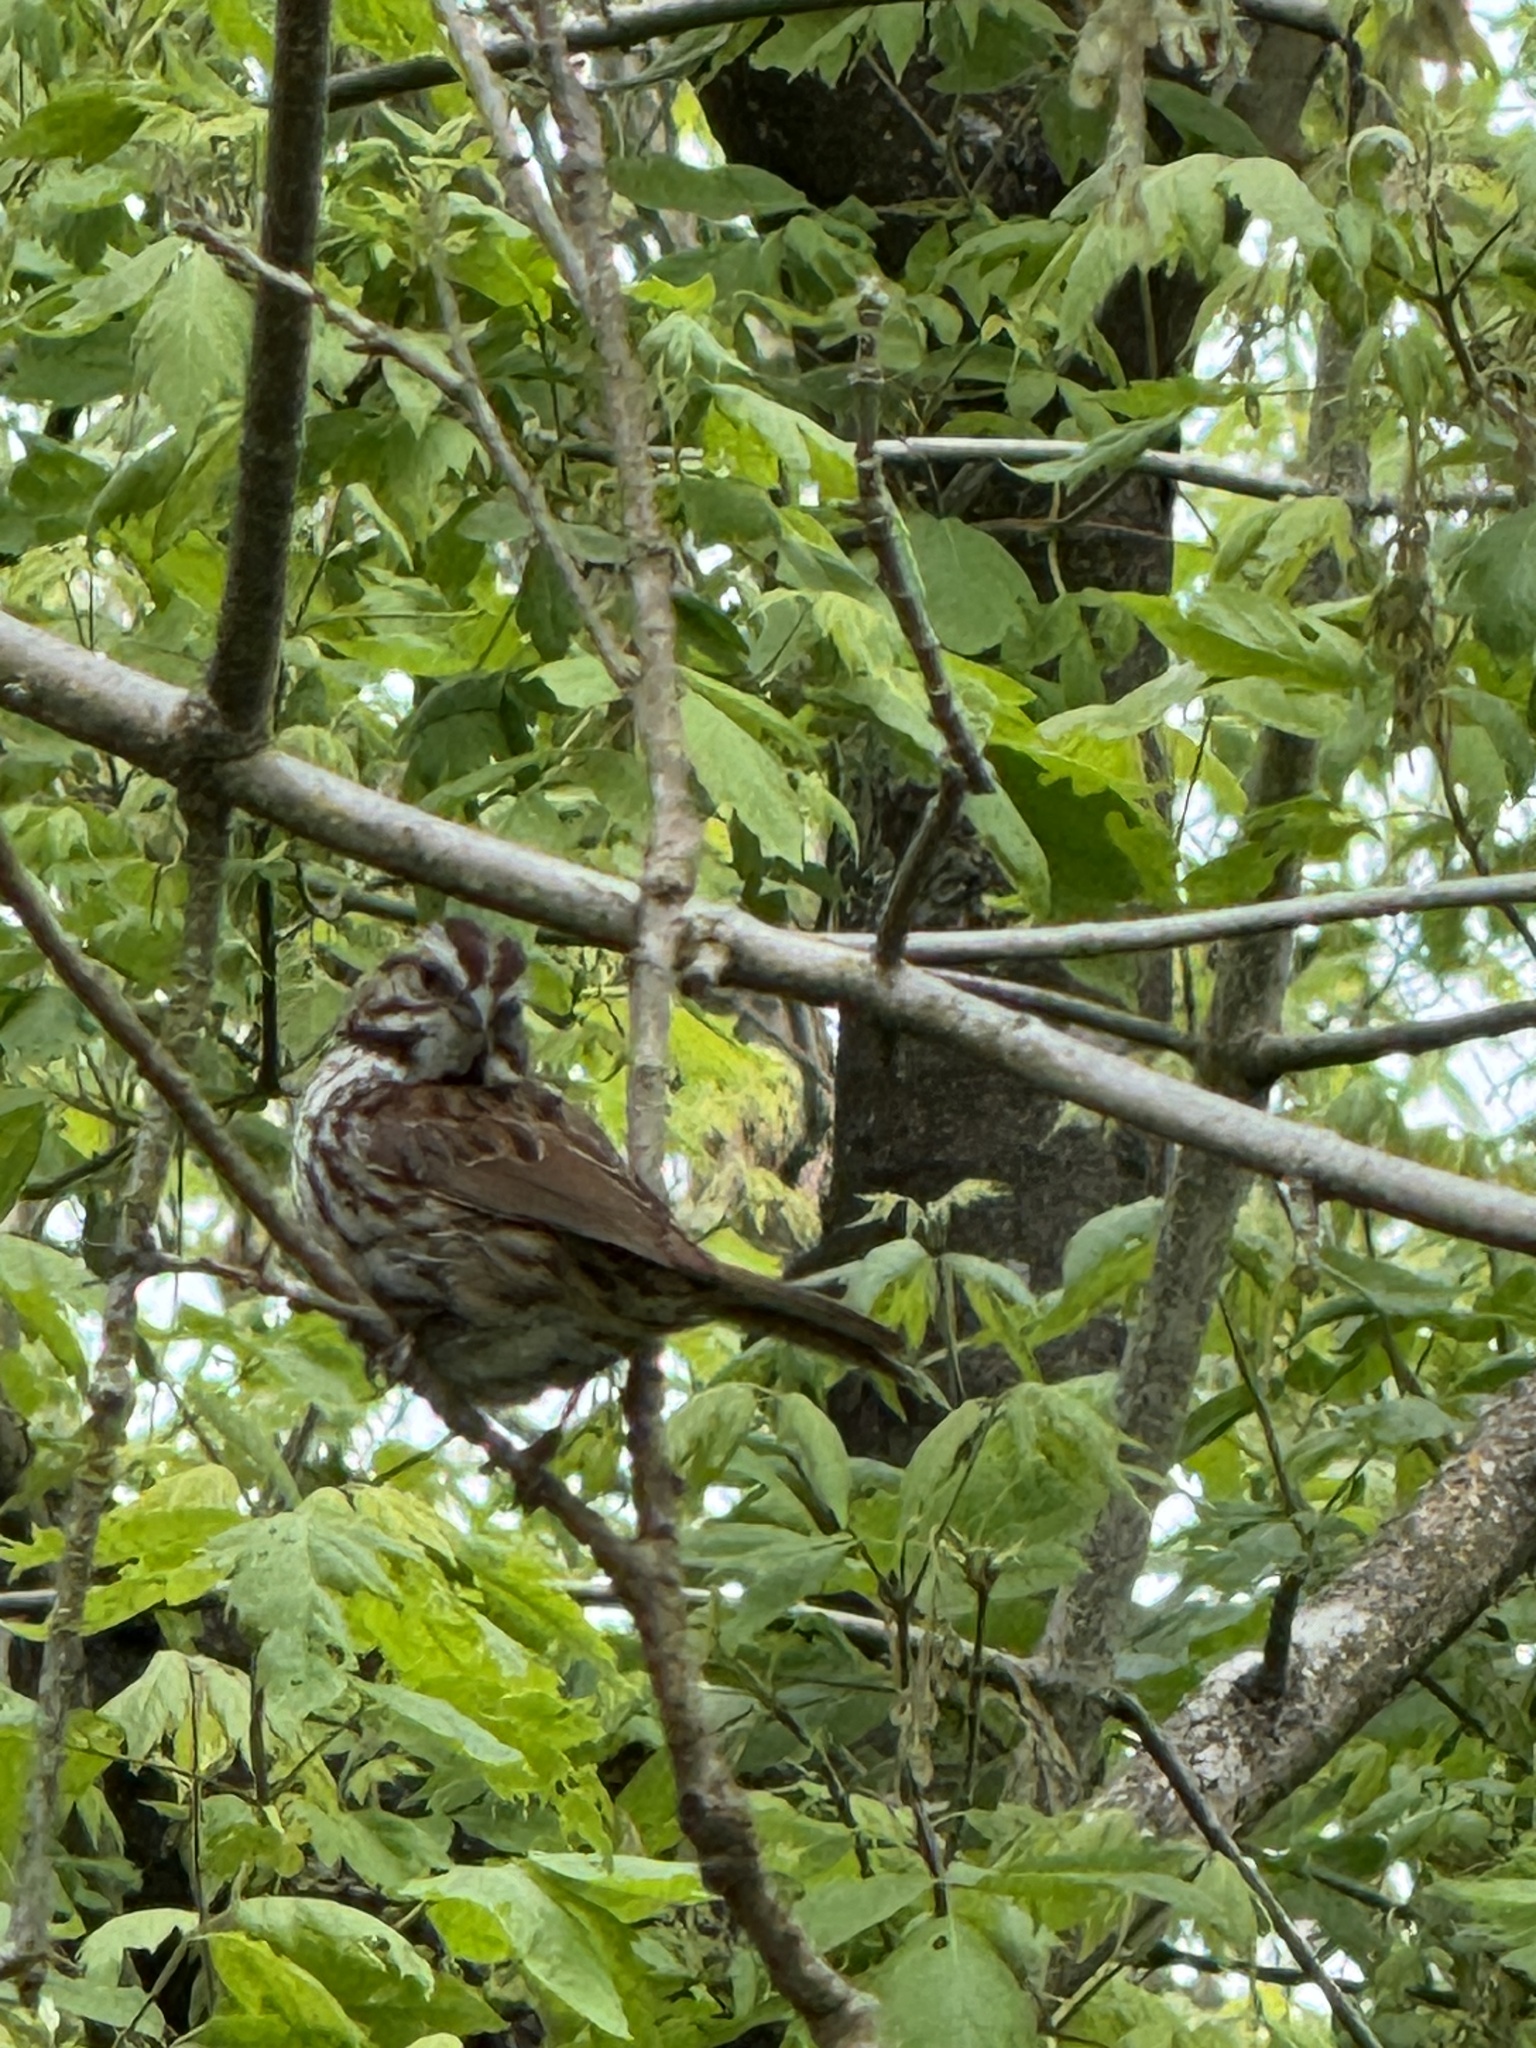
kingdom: Animalia
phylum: Chordata
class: Aves
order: Passeriformes
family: Passerellidae
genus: Melospiza
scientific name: Melospiza melodia
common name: Song sparrow
